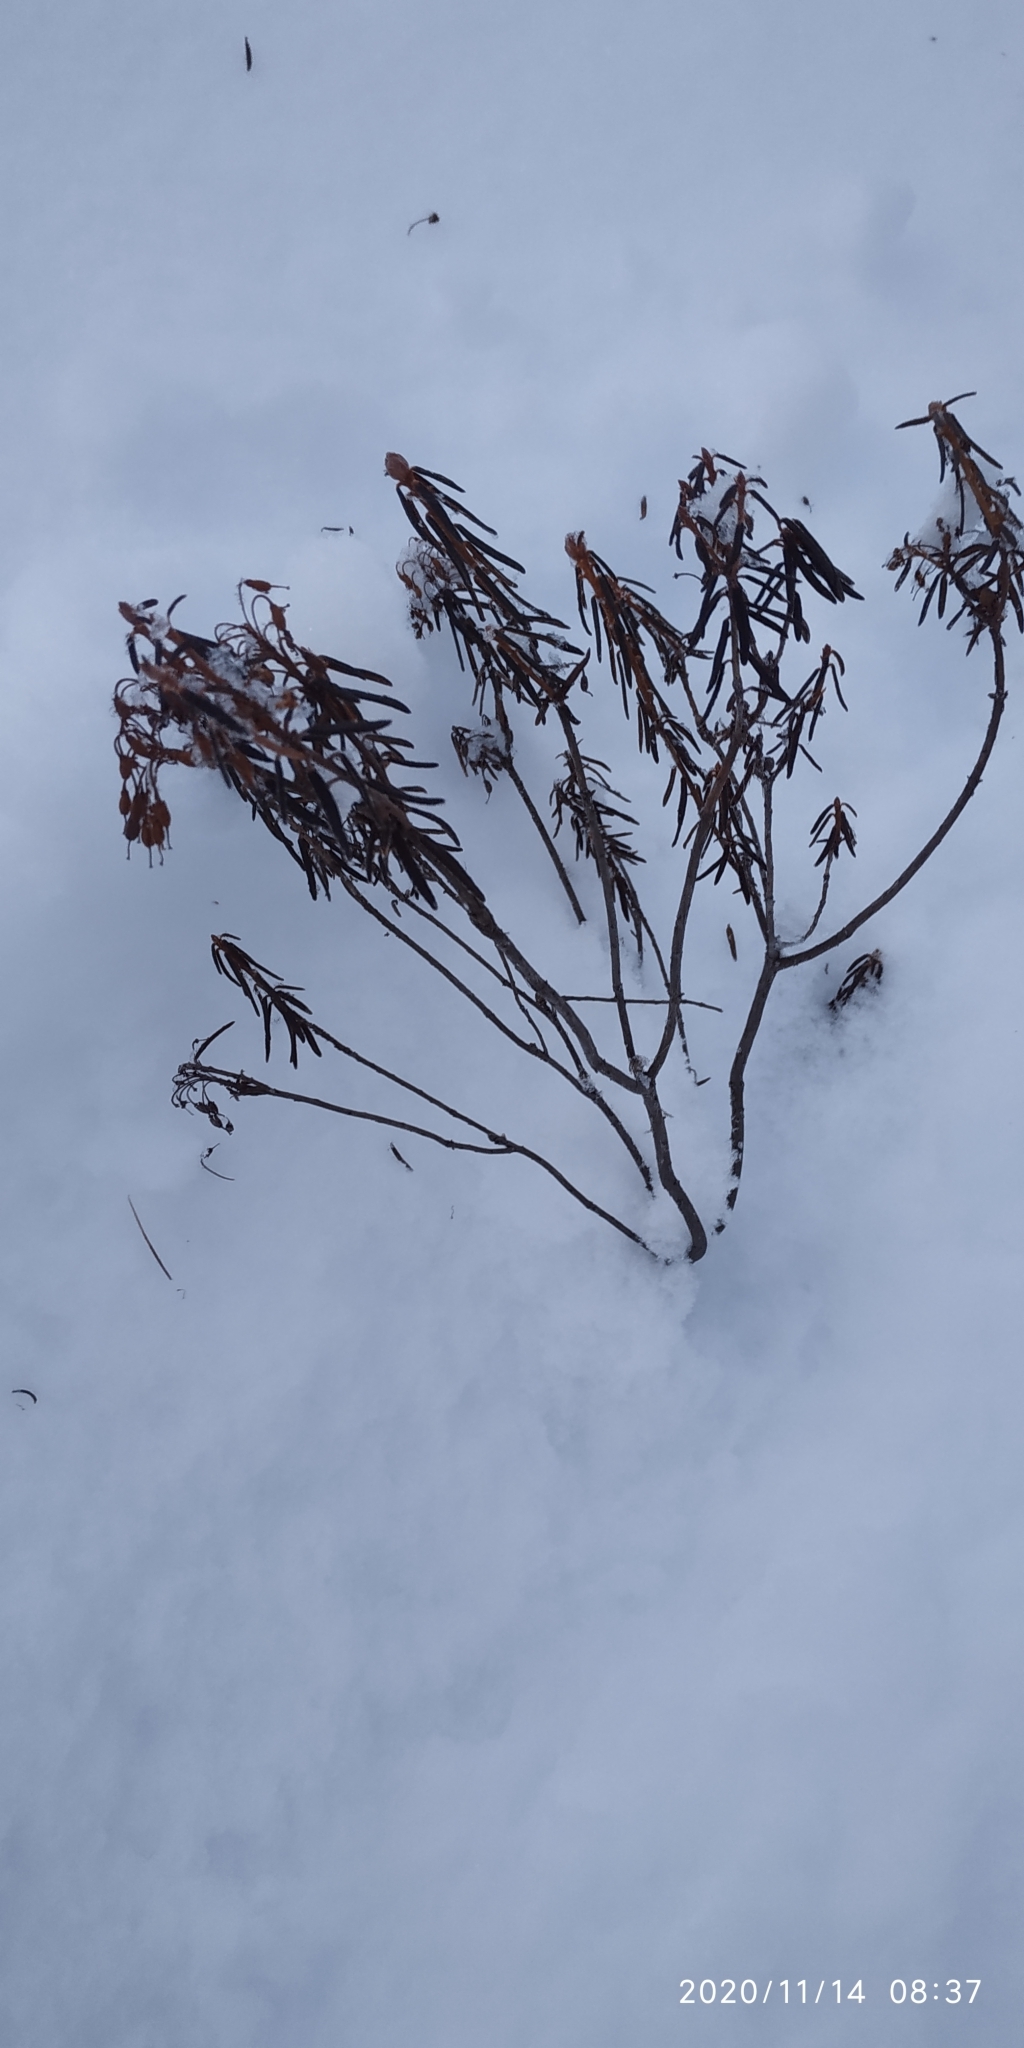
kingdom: Plantae
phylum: Tracheophyta
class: Magnoliopsida
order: Ericales
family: Ericaceae
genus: Rhododendron
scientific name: Rhododendron tomentosum
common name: Marsh labrador tea
